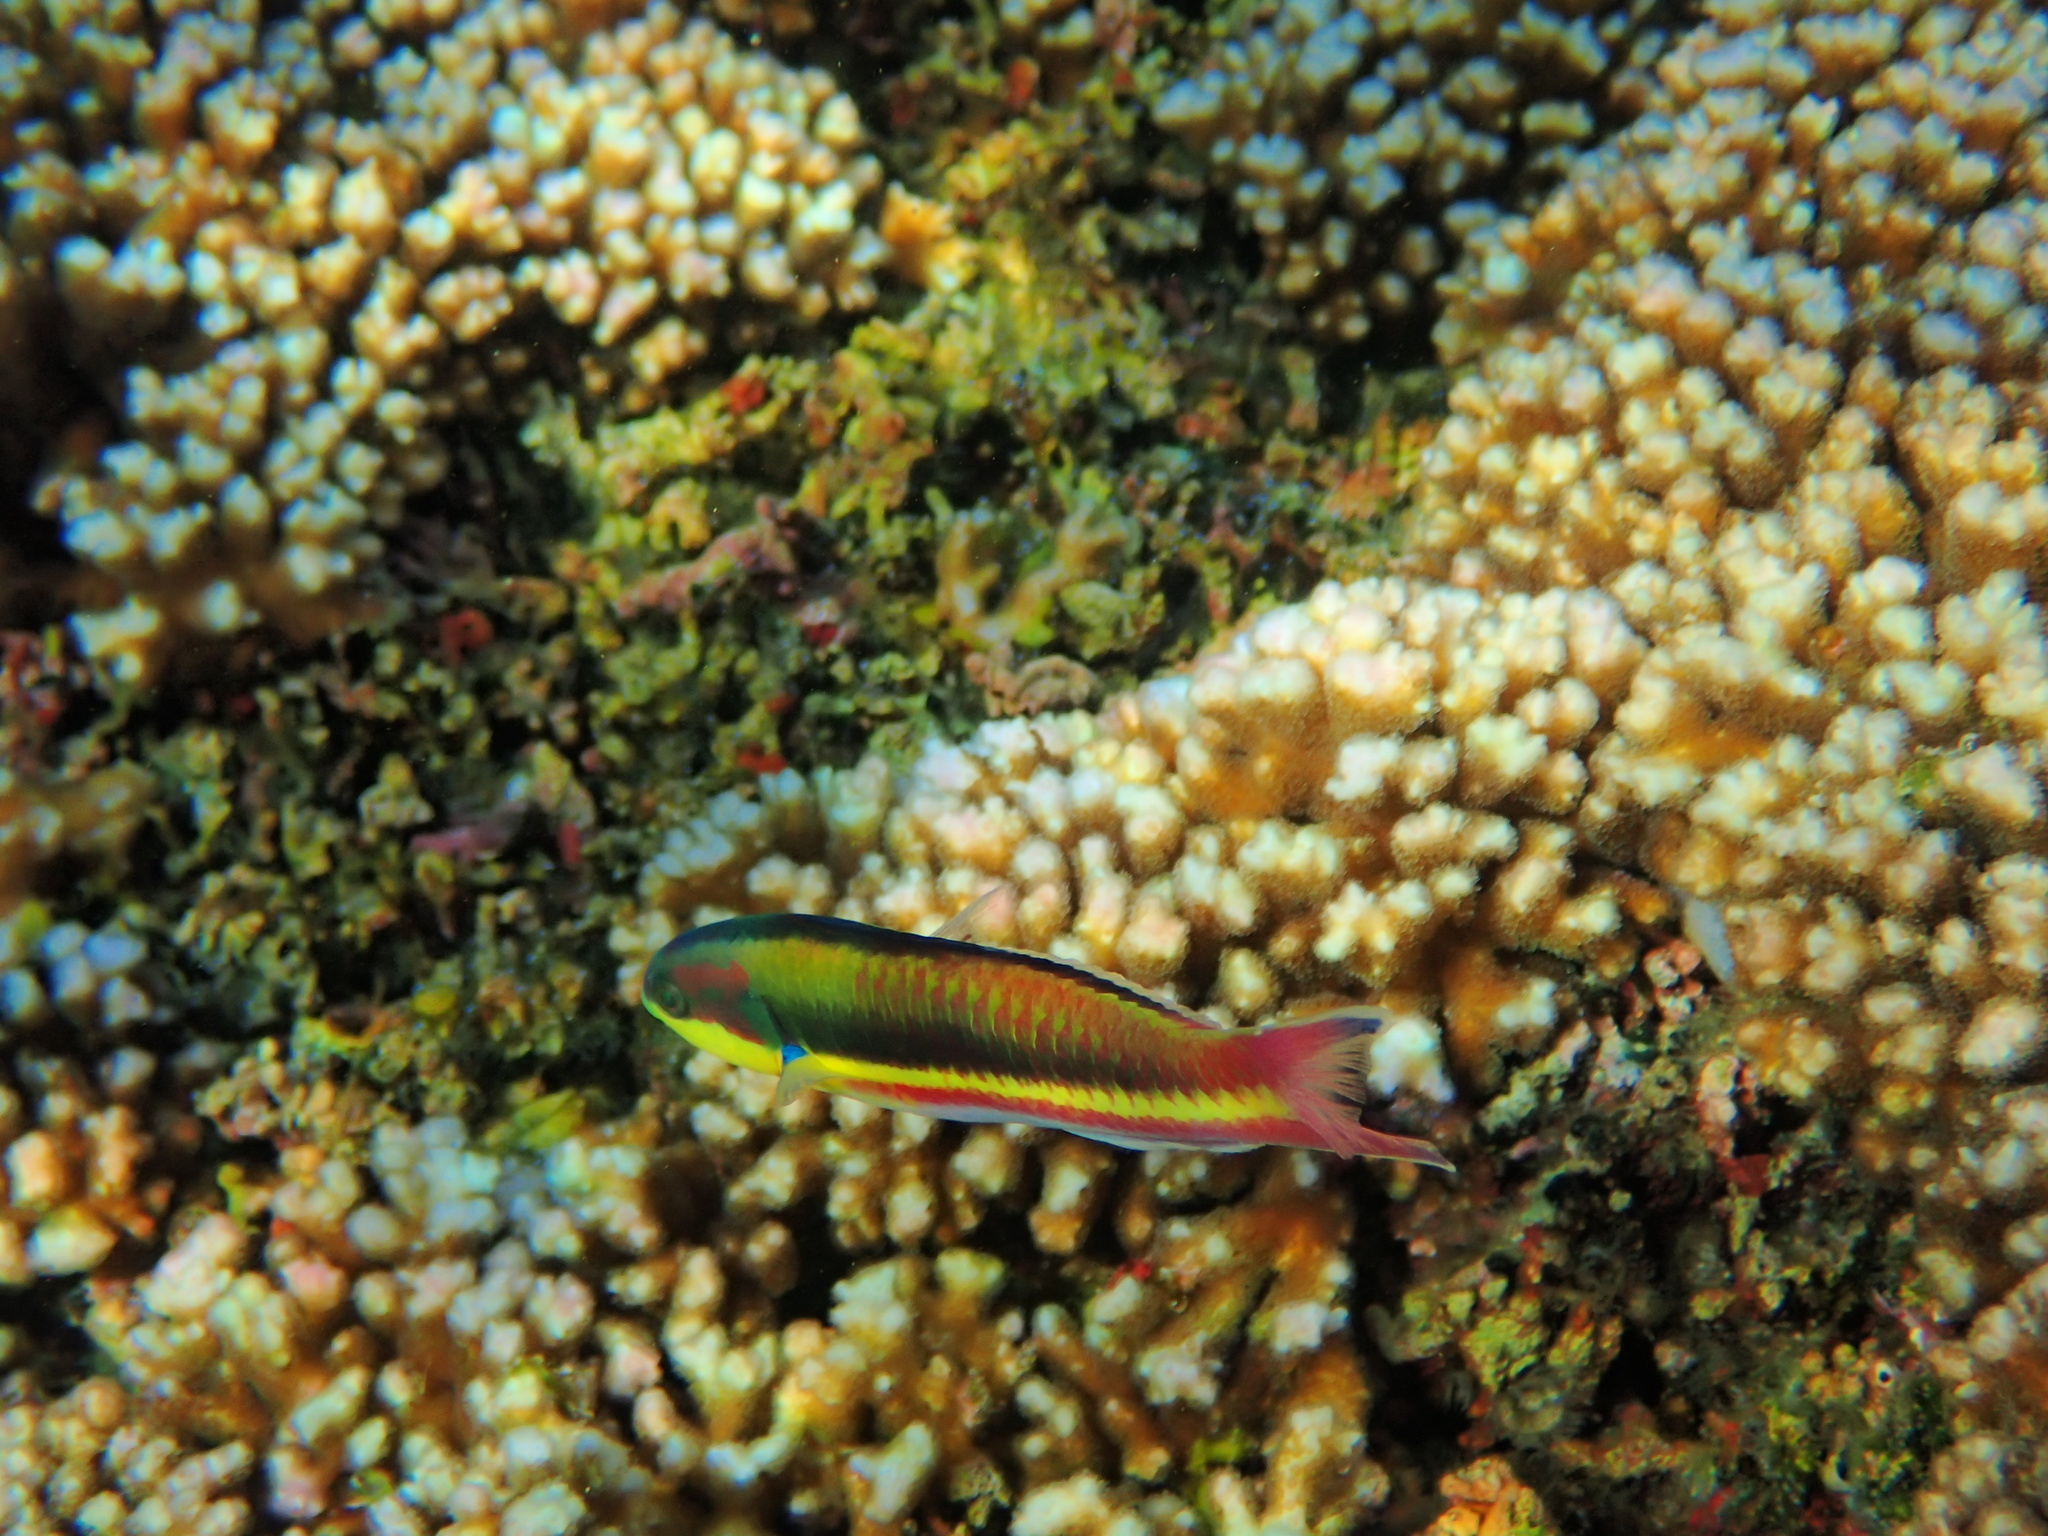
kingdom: Animalia
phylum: Chordata
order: Perciformes
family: Labridae
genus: Thalassoma
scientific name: Thalassoma lucasanum
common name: Cortez rainbow wrasse
